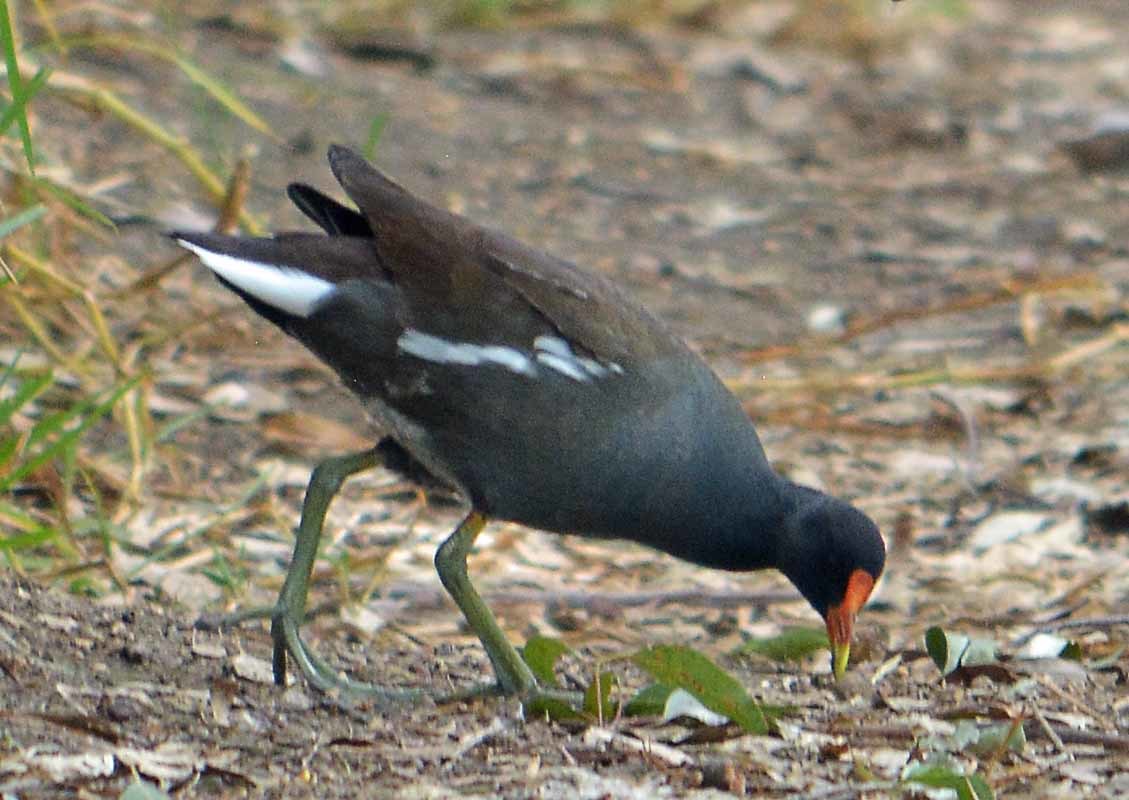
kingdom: Animalia
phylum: Chordata
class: Aves
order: Gruiformes
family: Rallidae
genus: Gallinula
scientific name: Gallinula chloropus
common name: Common moorhen
